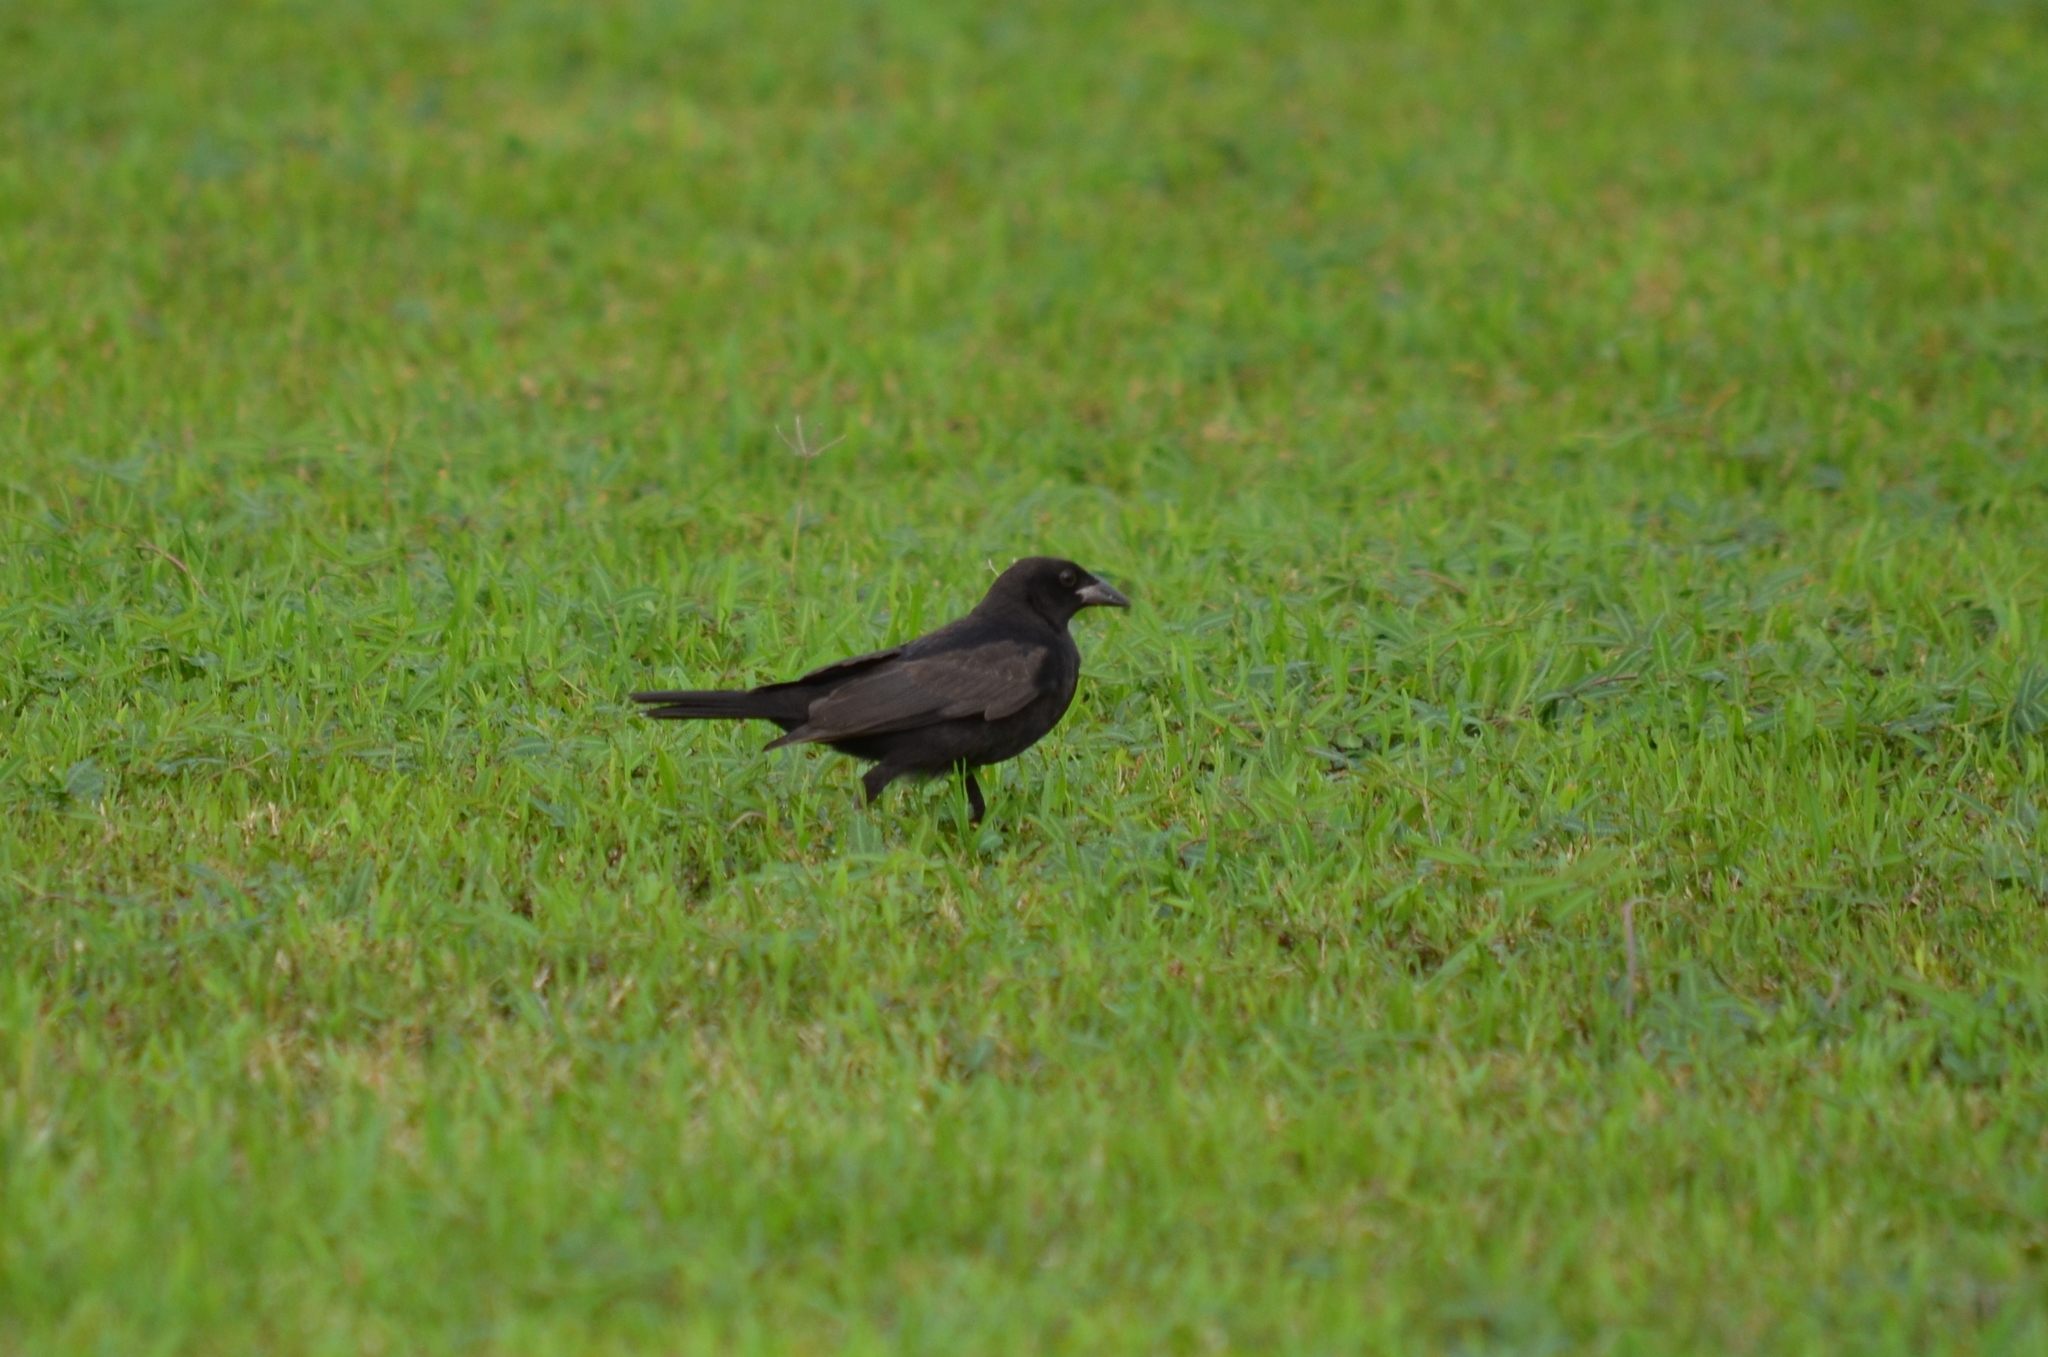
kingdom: Animalia
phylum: Chordata
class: Aves
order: Passeriformes
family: Icteridae
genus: Molothrus
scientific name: Molothrus aeneus
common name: Bronzed cowbird
